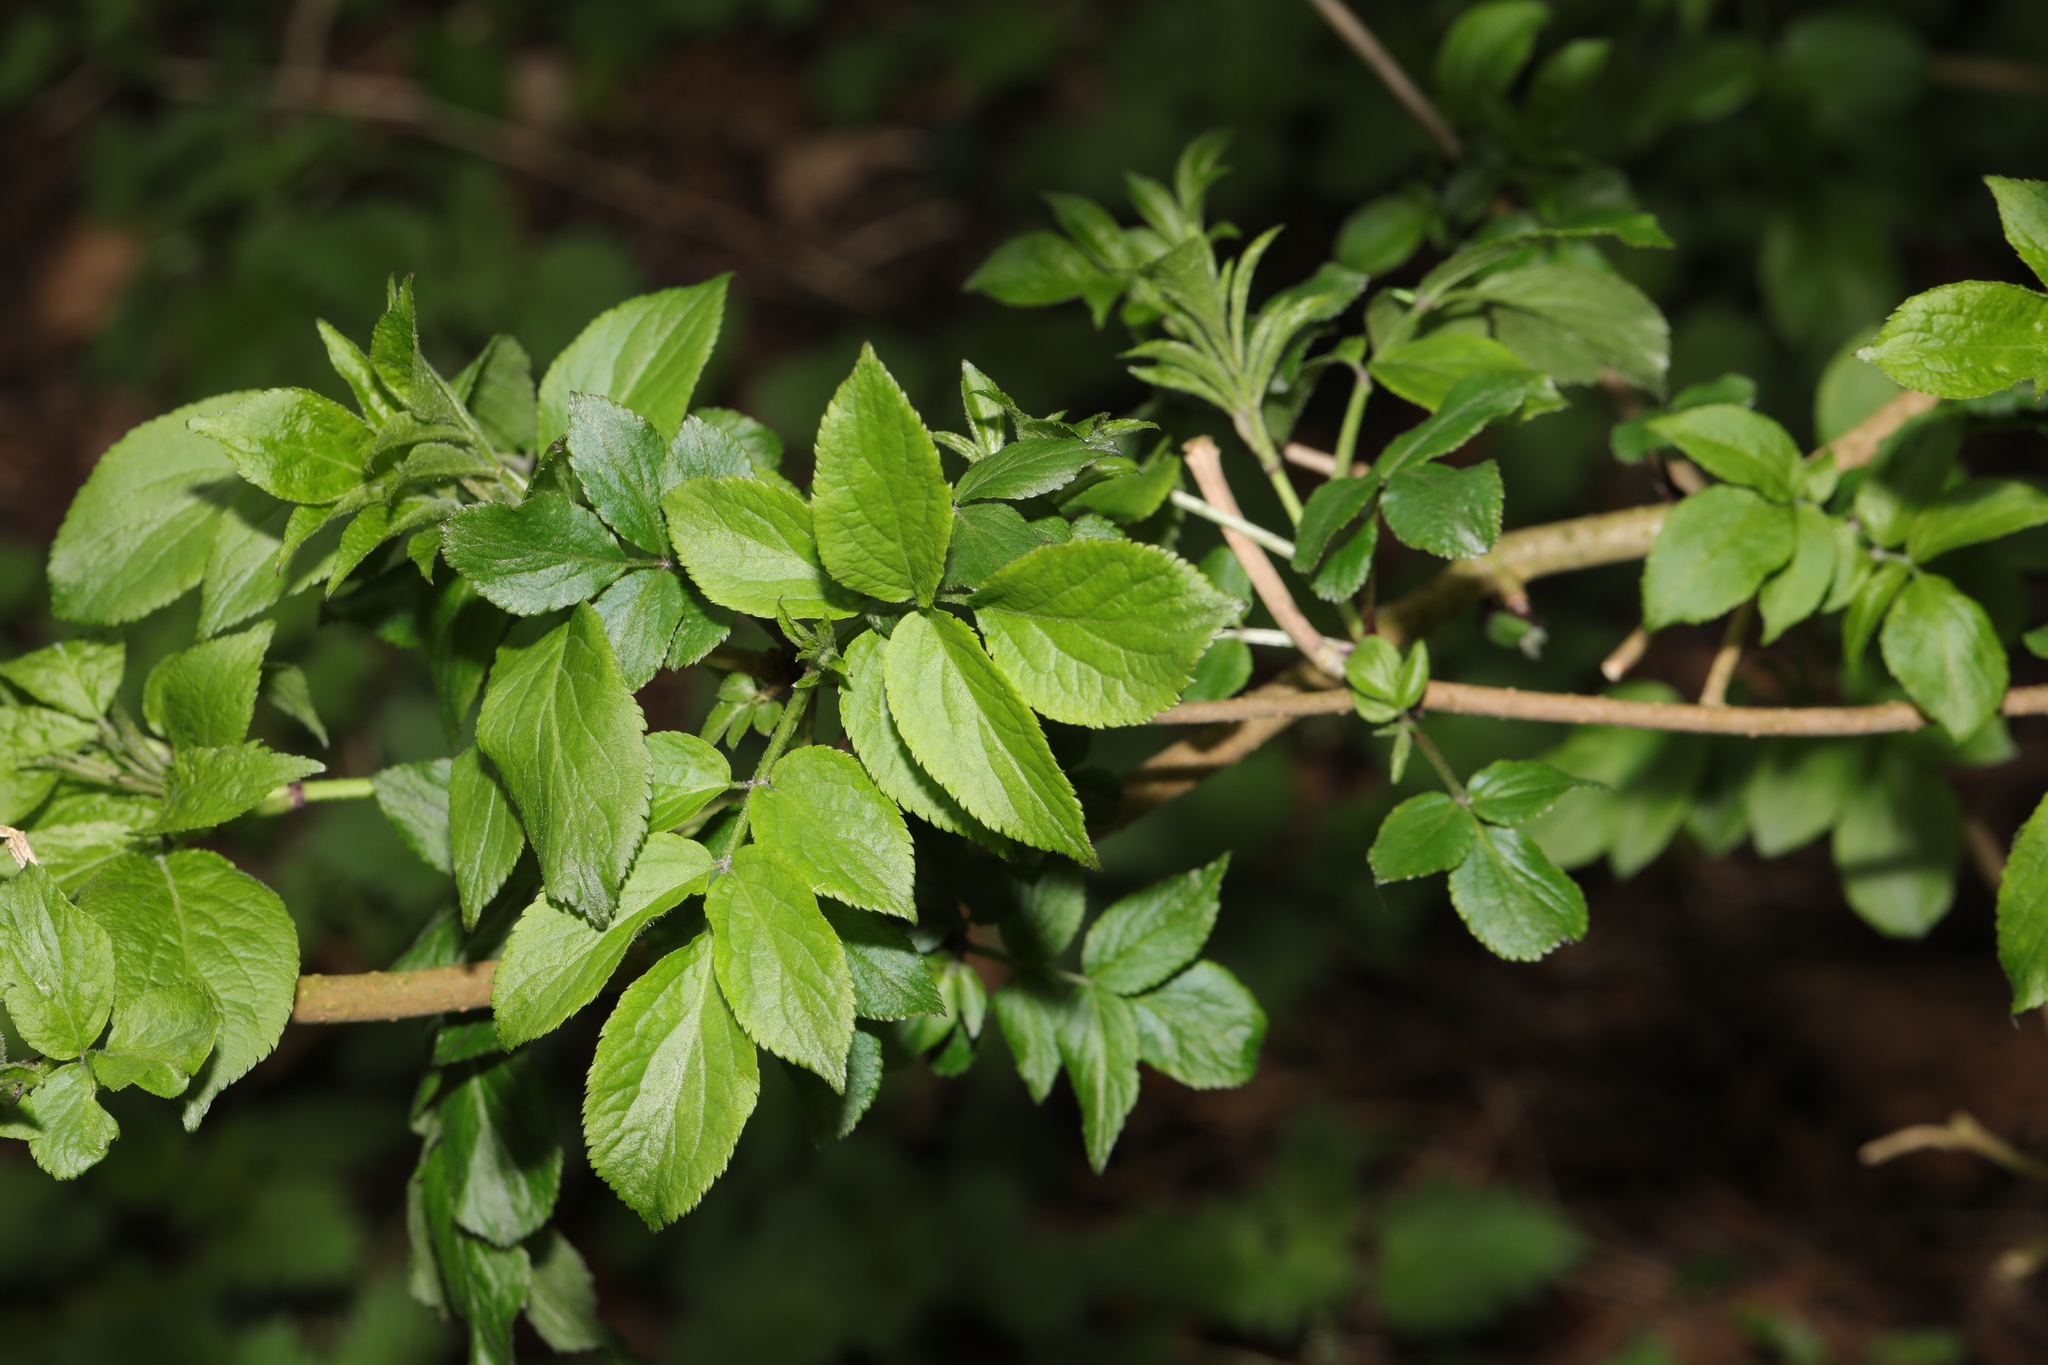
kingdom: Plantae
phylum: Tracheophyta
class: Magnoliopsida
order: Dipsacales
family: Viburnaceae
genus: Sambucus
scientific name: Sambucus nigra
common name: Elder
